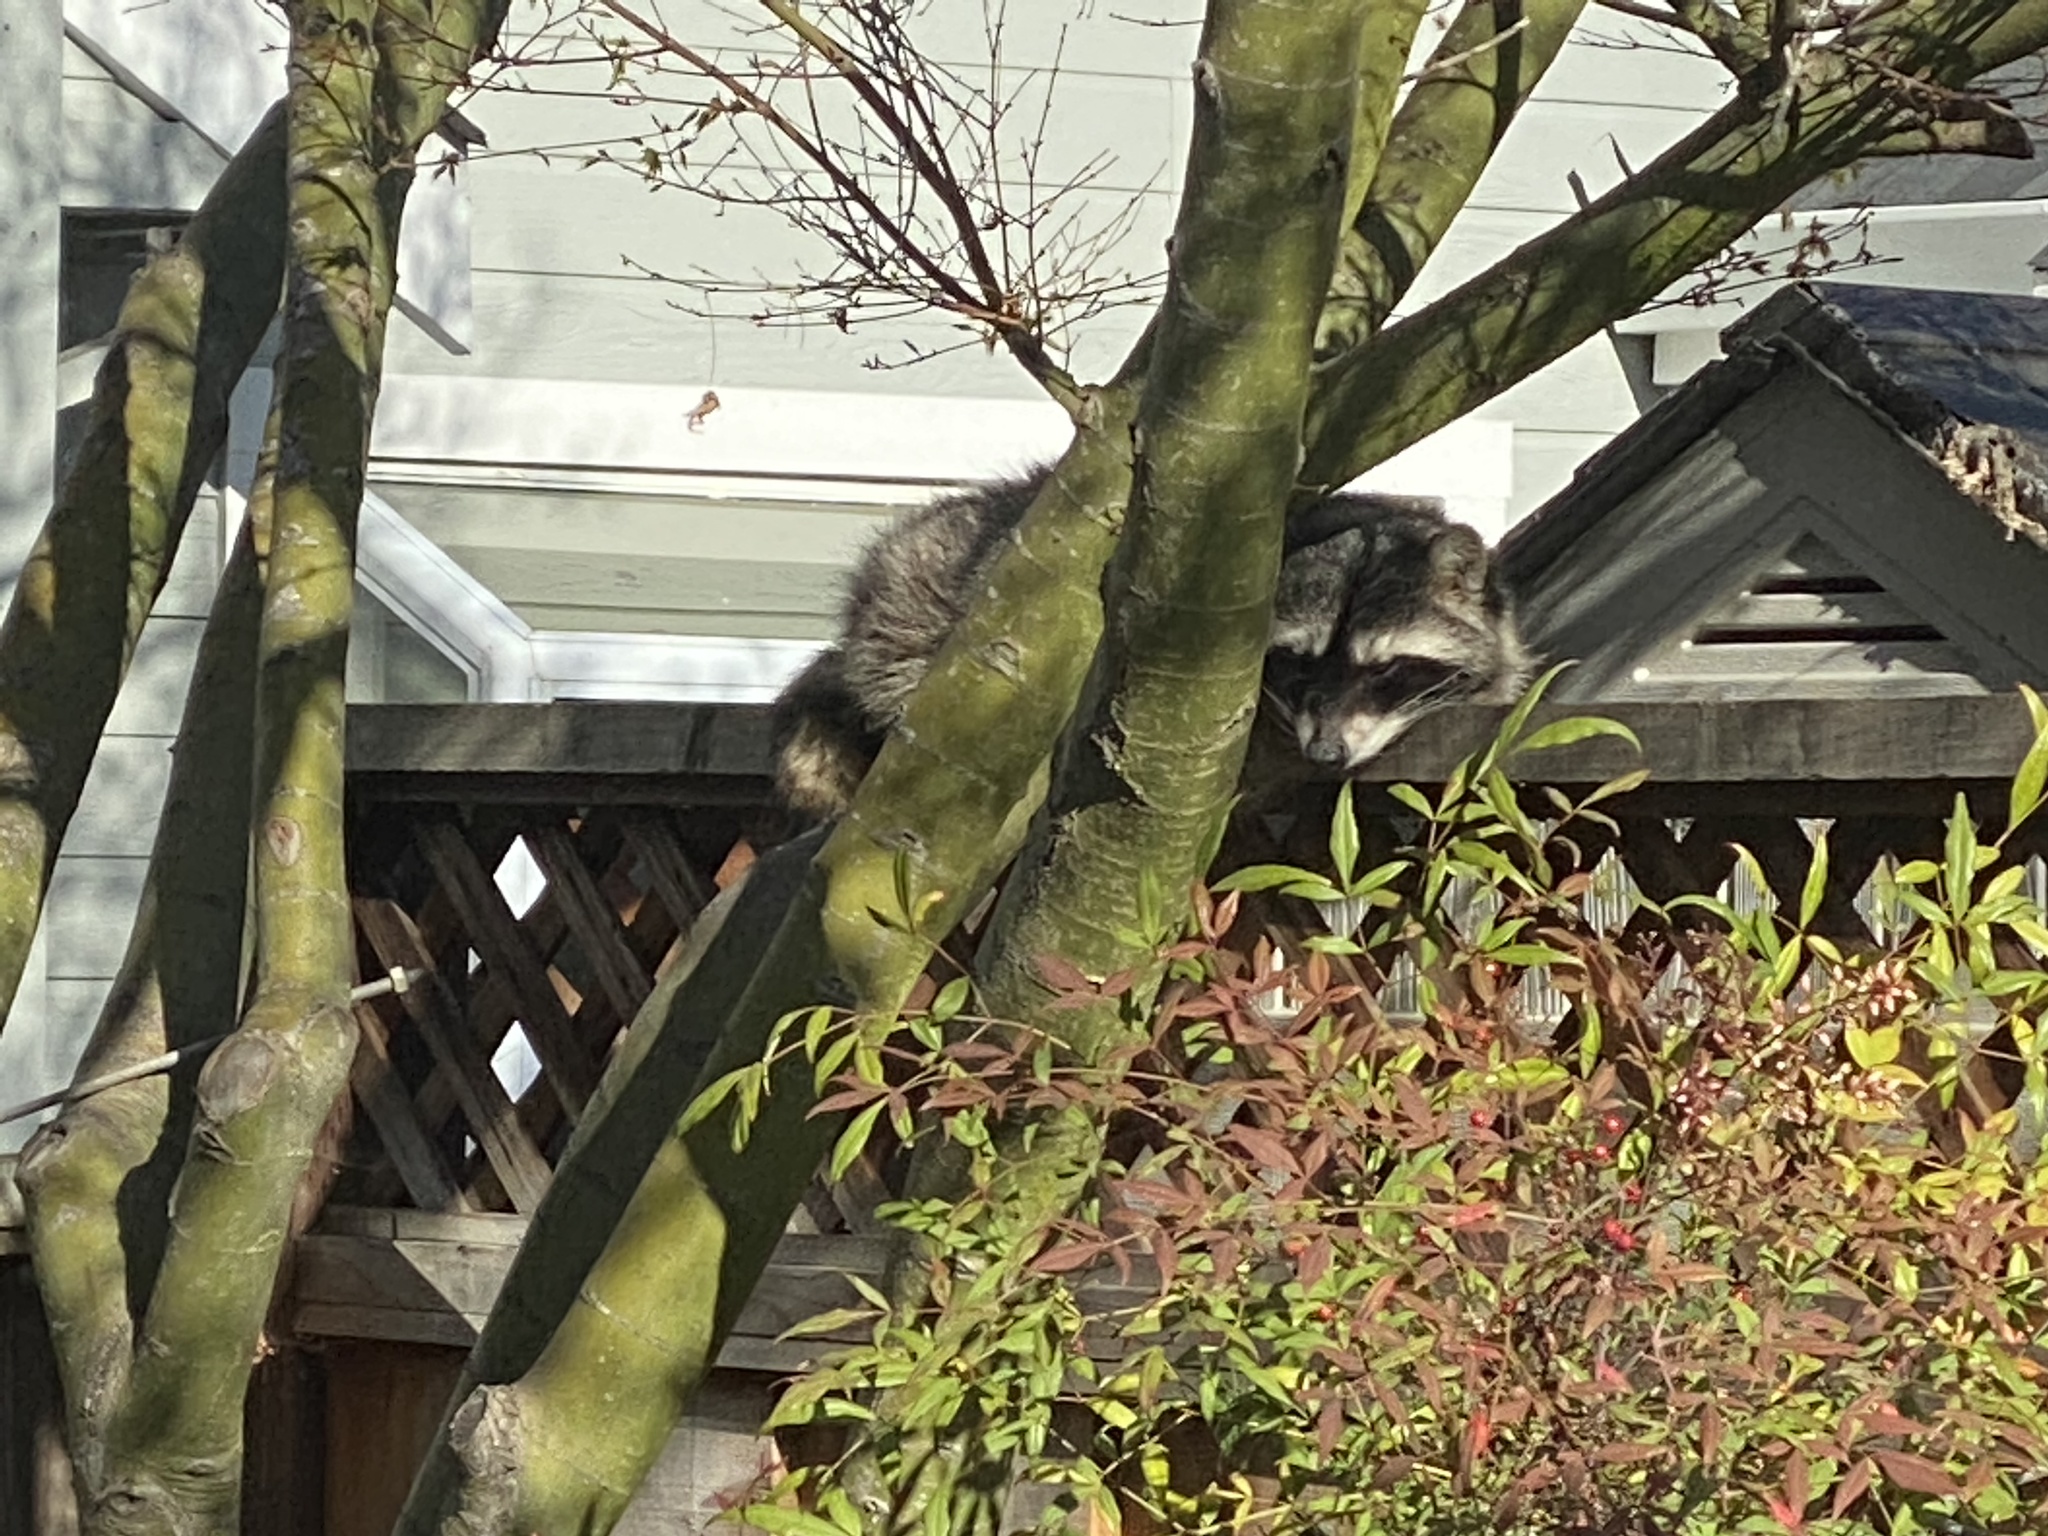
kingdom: Animalia
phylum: Chordata
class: Mammalia
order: Carnivora
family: Procyonidae
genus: Procyon
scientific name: Procyon lotor
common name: Raccoon
